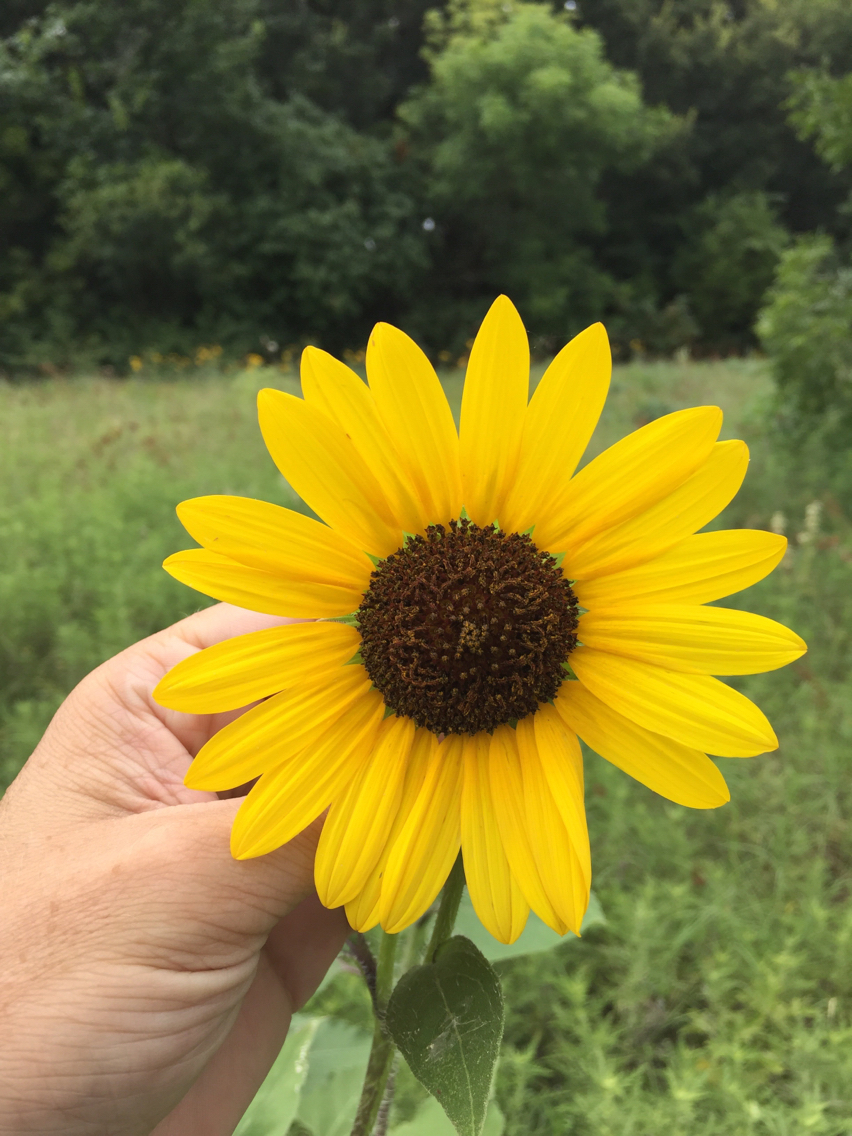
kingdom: Plantae
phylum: Tracheophyta
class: Magnoliopsida
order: Asterales
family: Asteraceae
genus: Helianthus
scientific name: Helianthus annuus
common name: Sunflower
